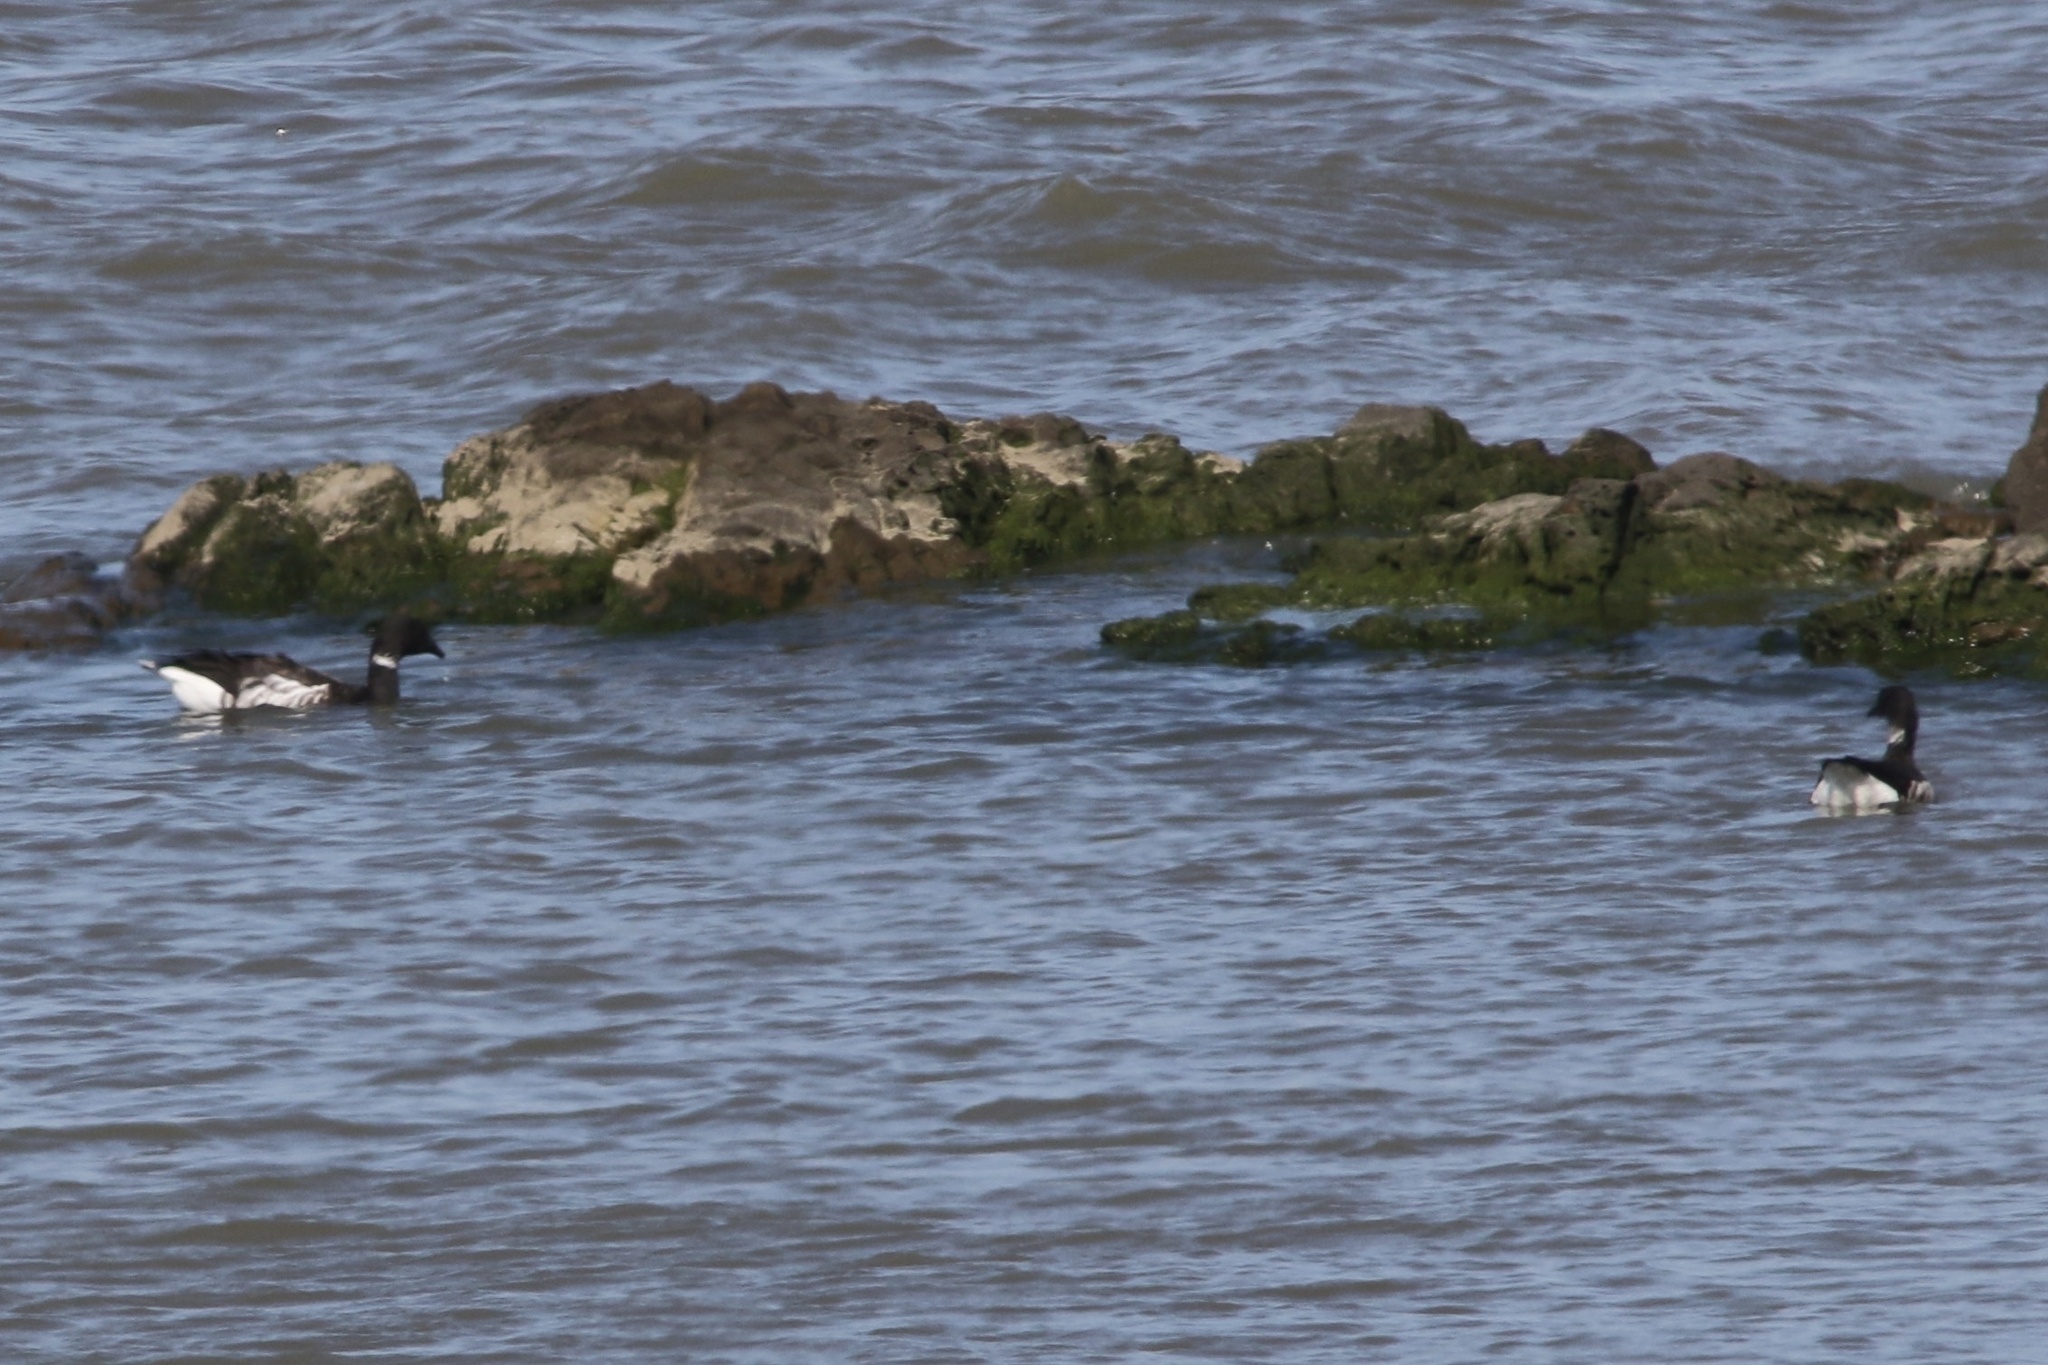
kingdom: Animalia
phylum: Chordata
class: Aves
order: Anseriformes
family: Anatidae
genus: Branta
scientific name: Branta bernicla
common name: Brant goose
